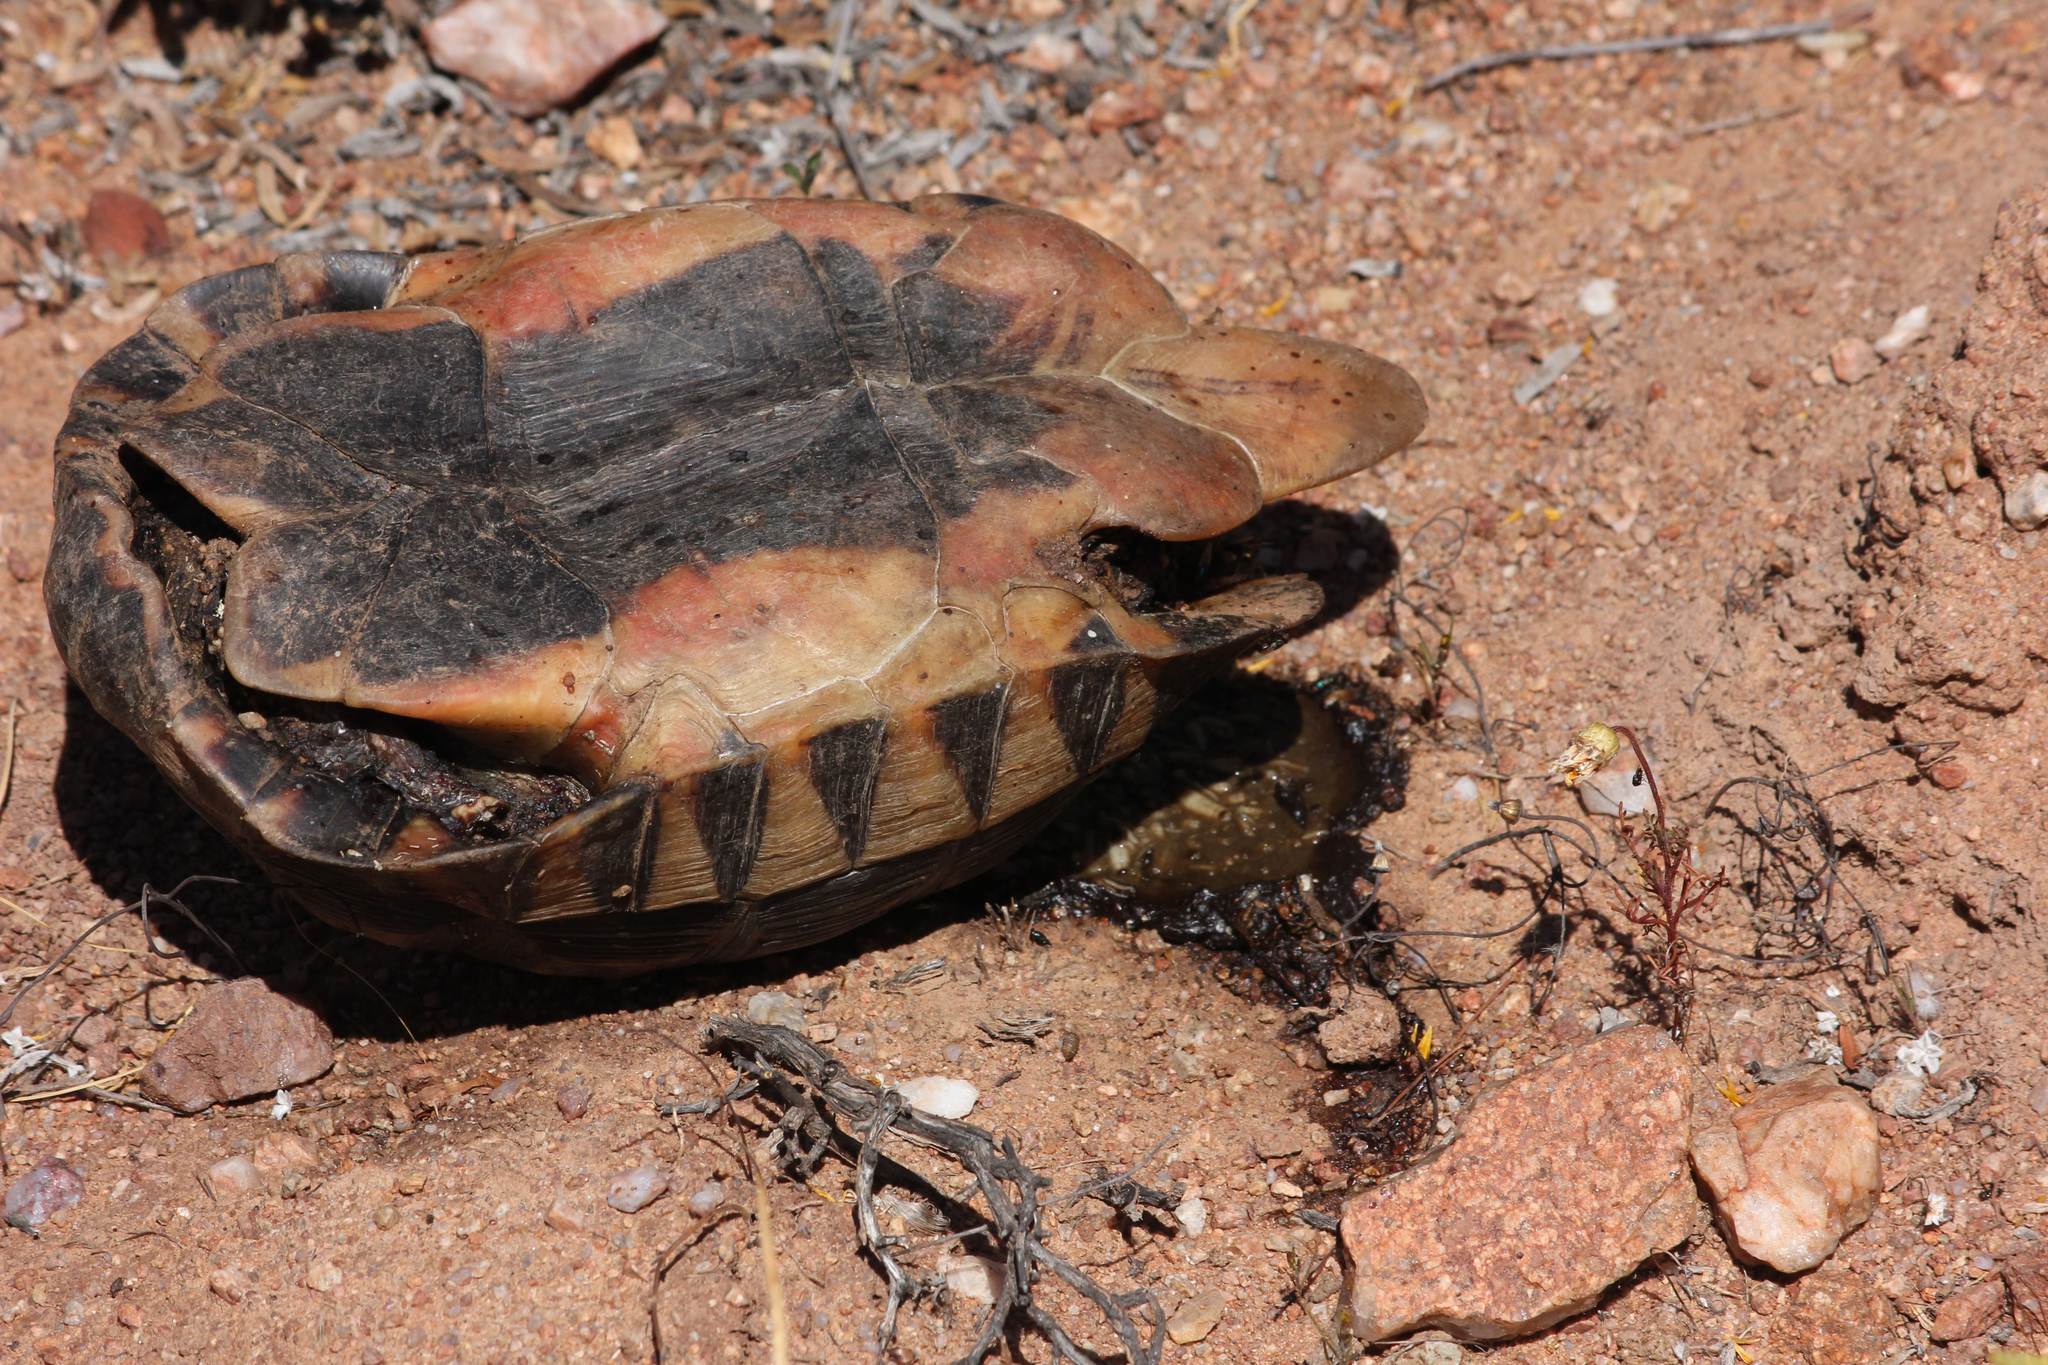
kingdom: Animalia
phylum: Chordata
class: Testudines
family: Testudinidae
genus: Chersina
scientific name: Chersina angulata
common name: South african bowsprit tortoise
